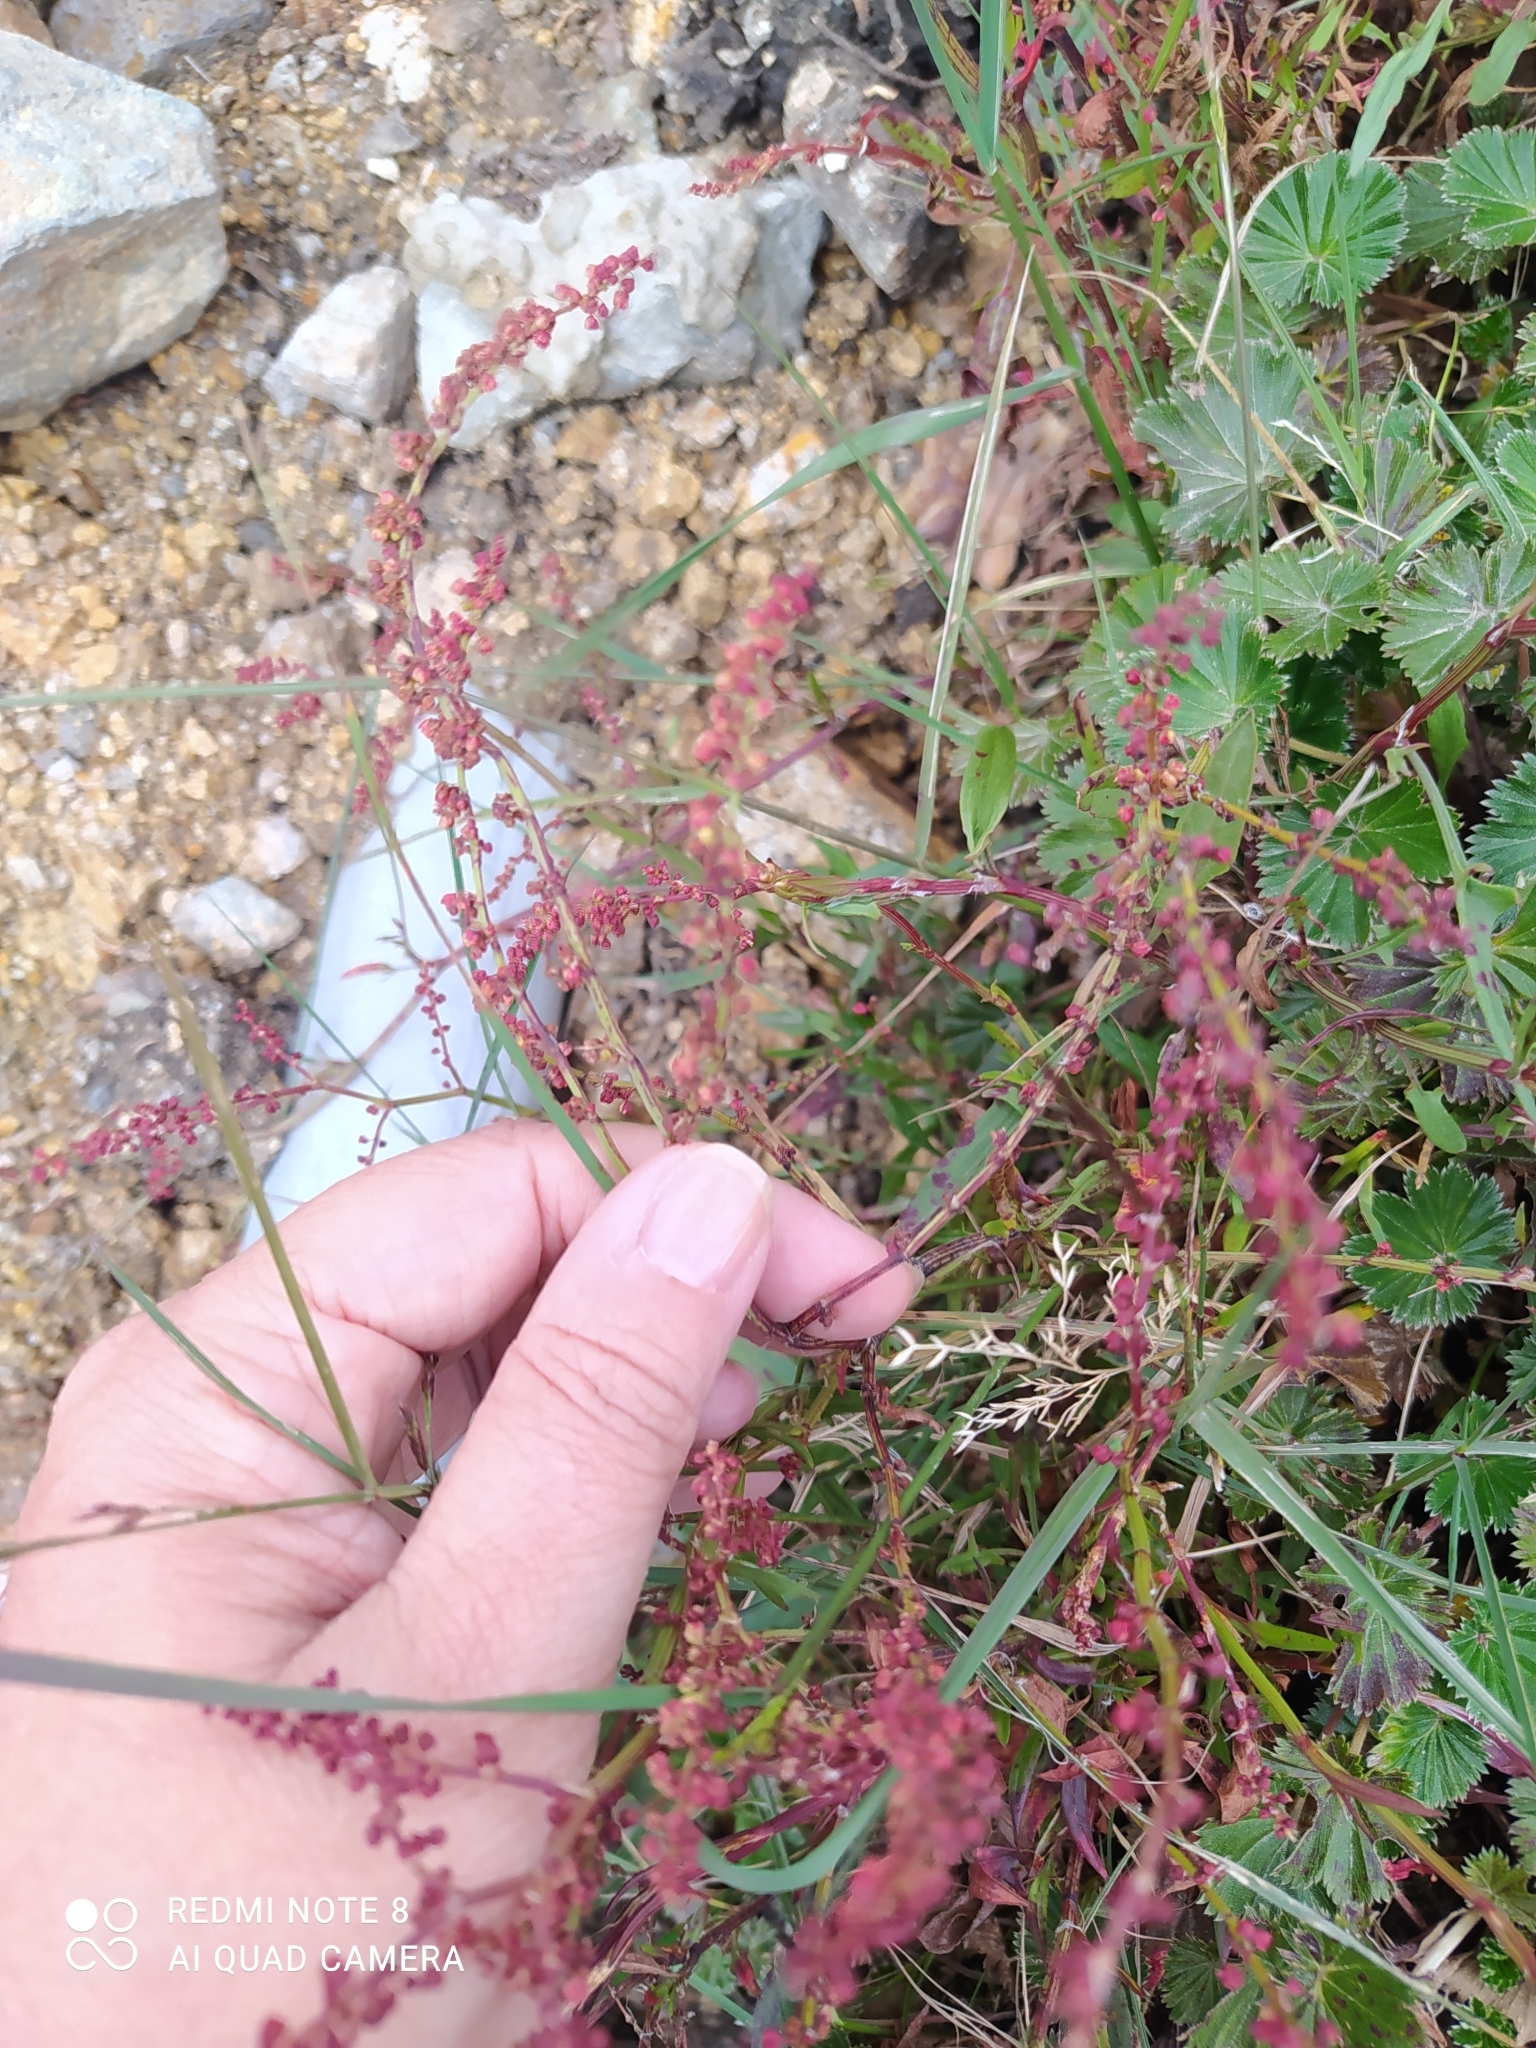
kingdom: Plantae
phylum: Tracheophyta
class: Magnoliopsida
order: Caryophyllales
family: Polygonaceae
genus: Rumex
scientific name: Rumex acetosella
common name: Common sheep sorrel
